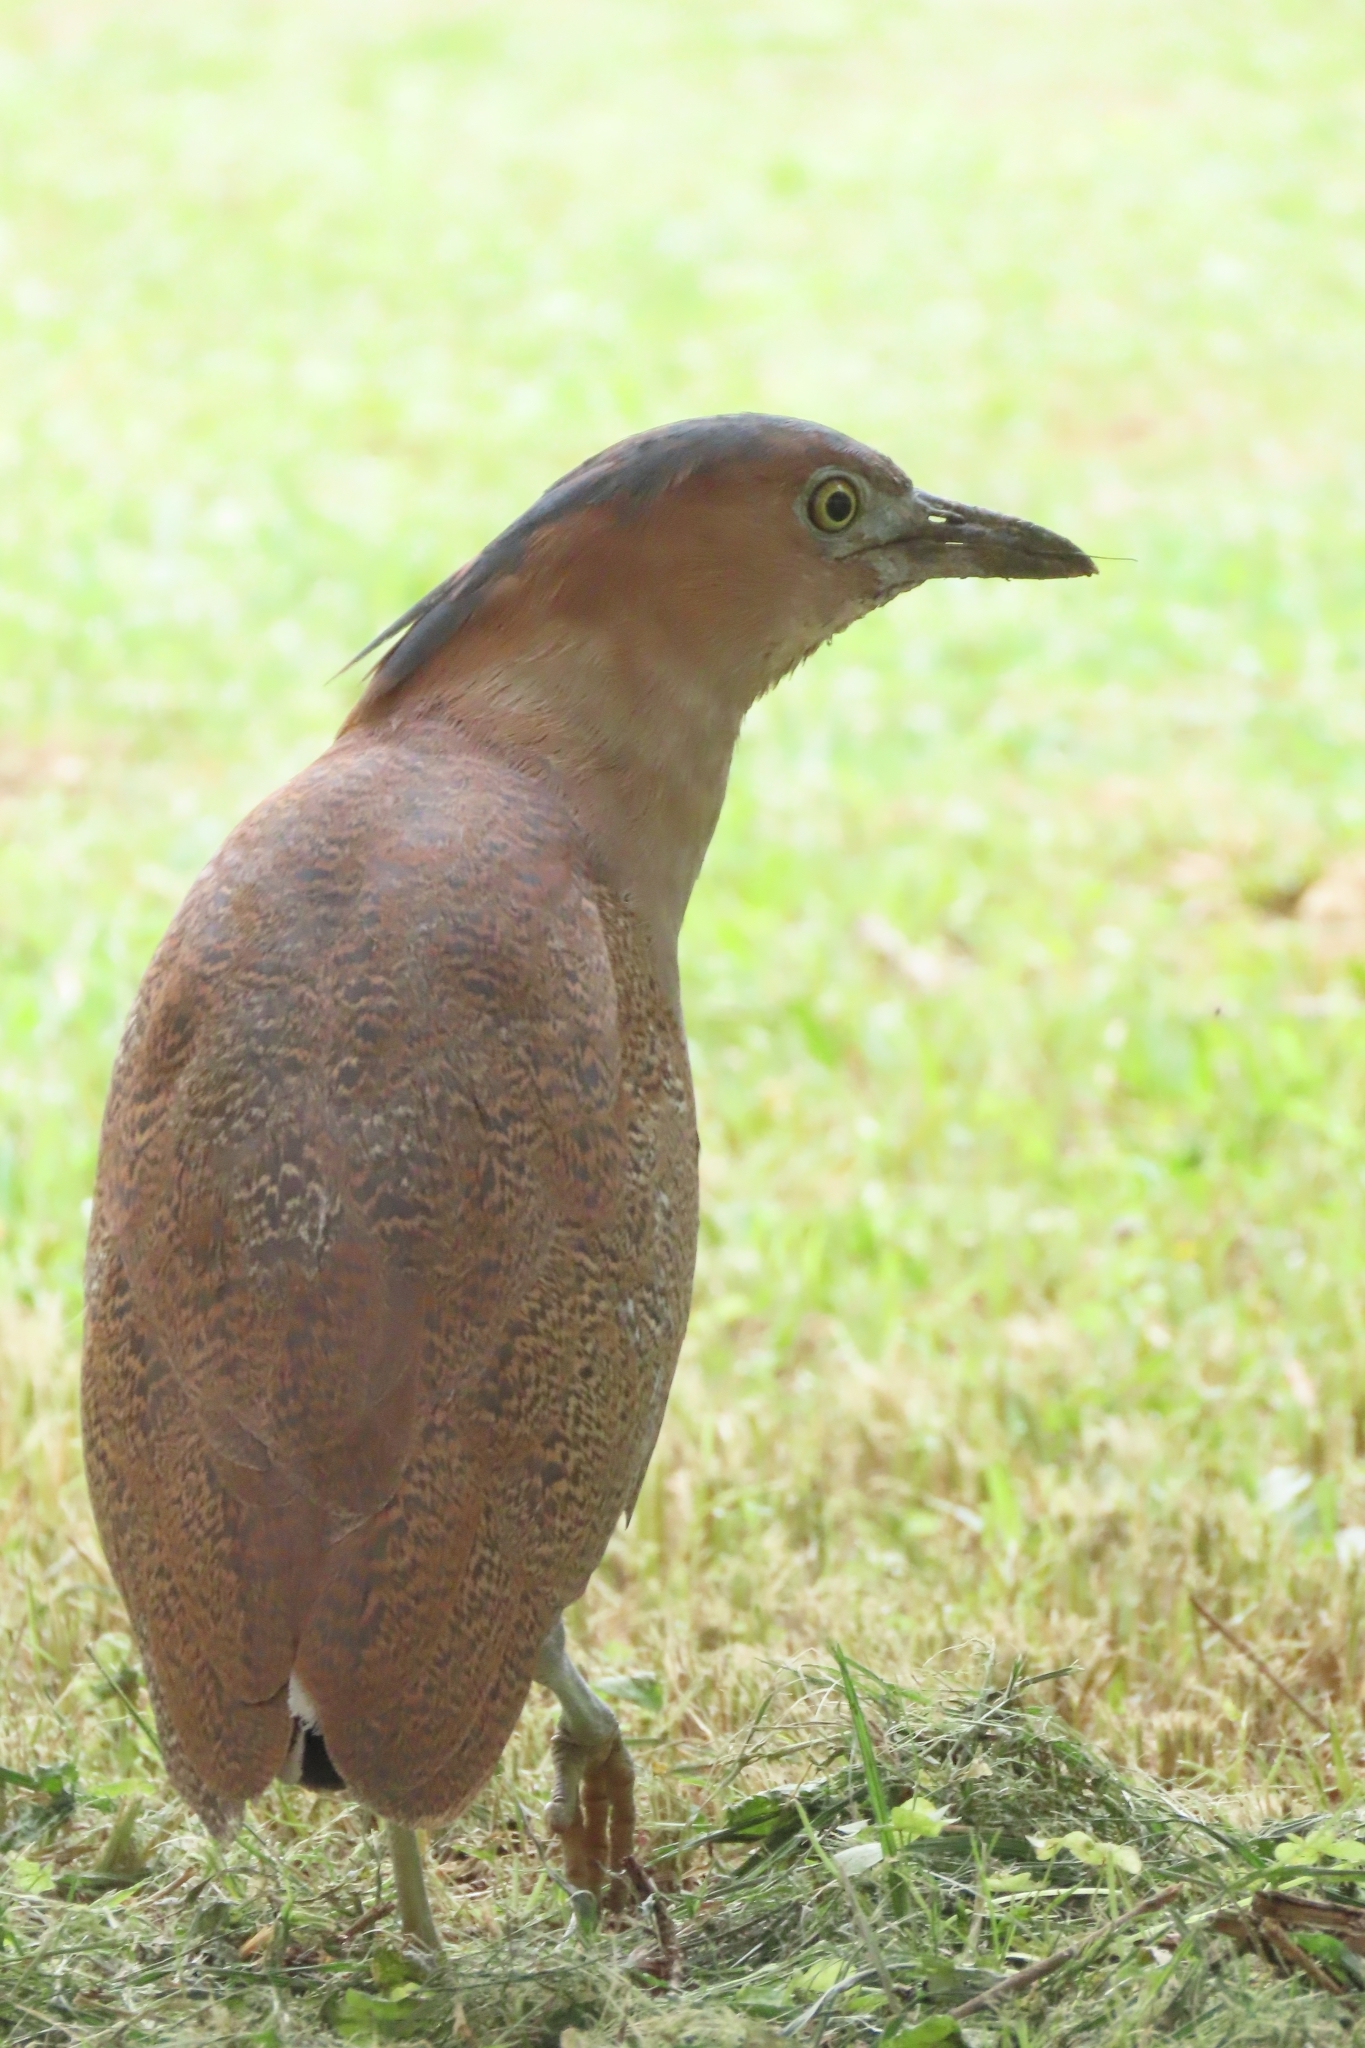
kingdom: Animalia
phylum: Chordata
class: Aves
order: Pelecaniformes
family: Ardeidae
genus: Gorsachius
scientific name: Gorsachius melanolophus
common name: Malayan night heron
